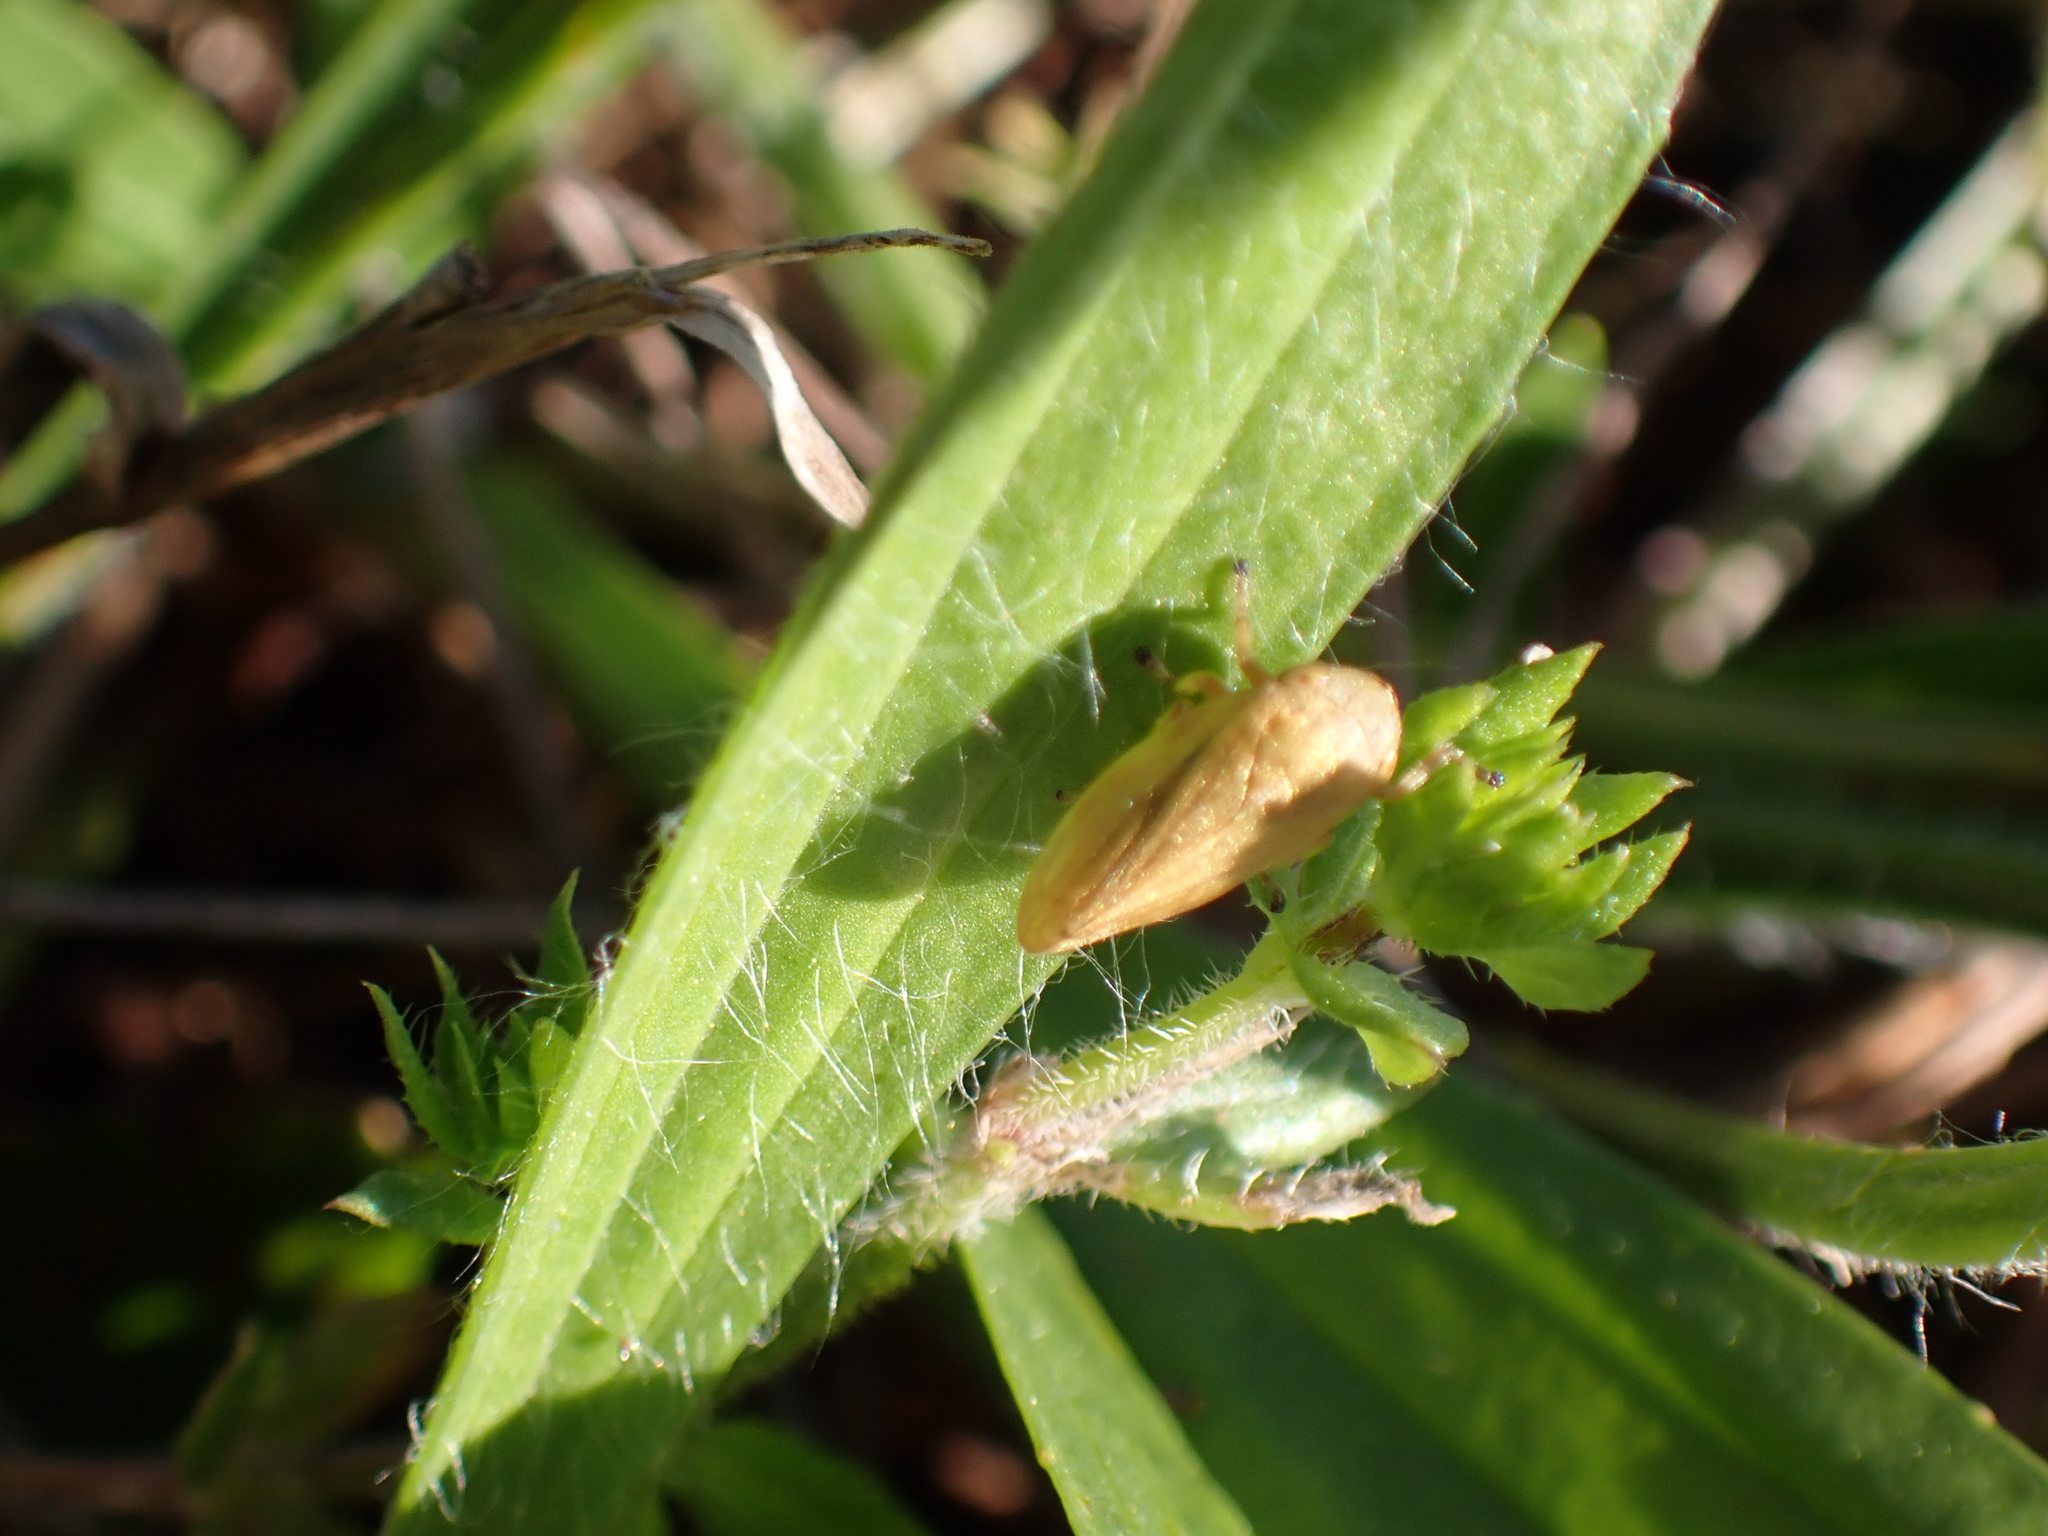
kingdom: Animalia
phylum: Arthropoda
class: Insecta
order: Hemiptera
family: Aphrophoridae
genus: Philaenus
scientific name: Philaenus spumarius
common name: Meadow spittlebug
